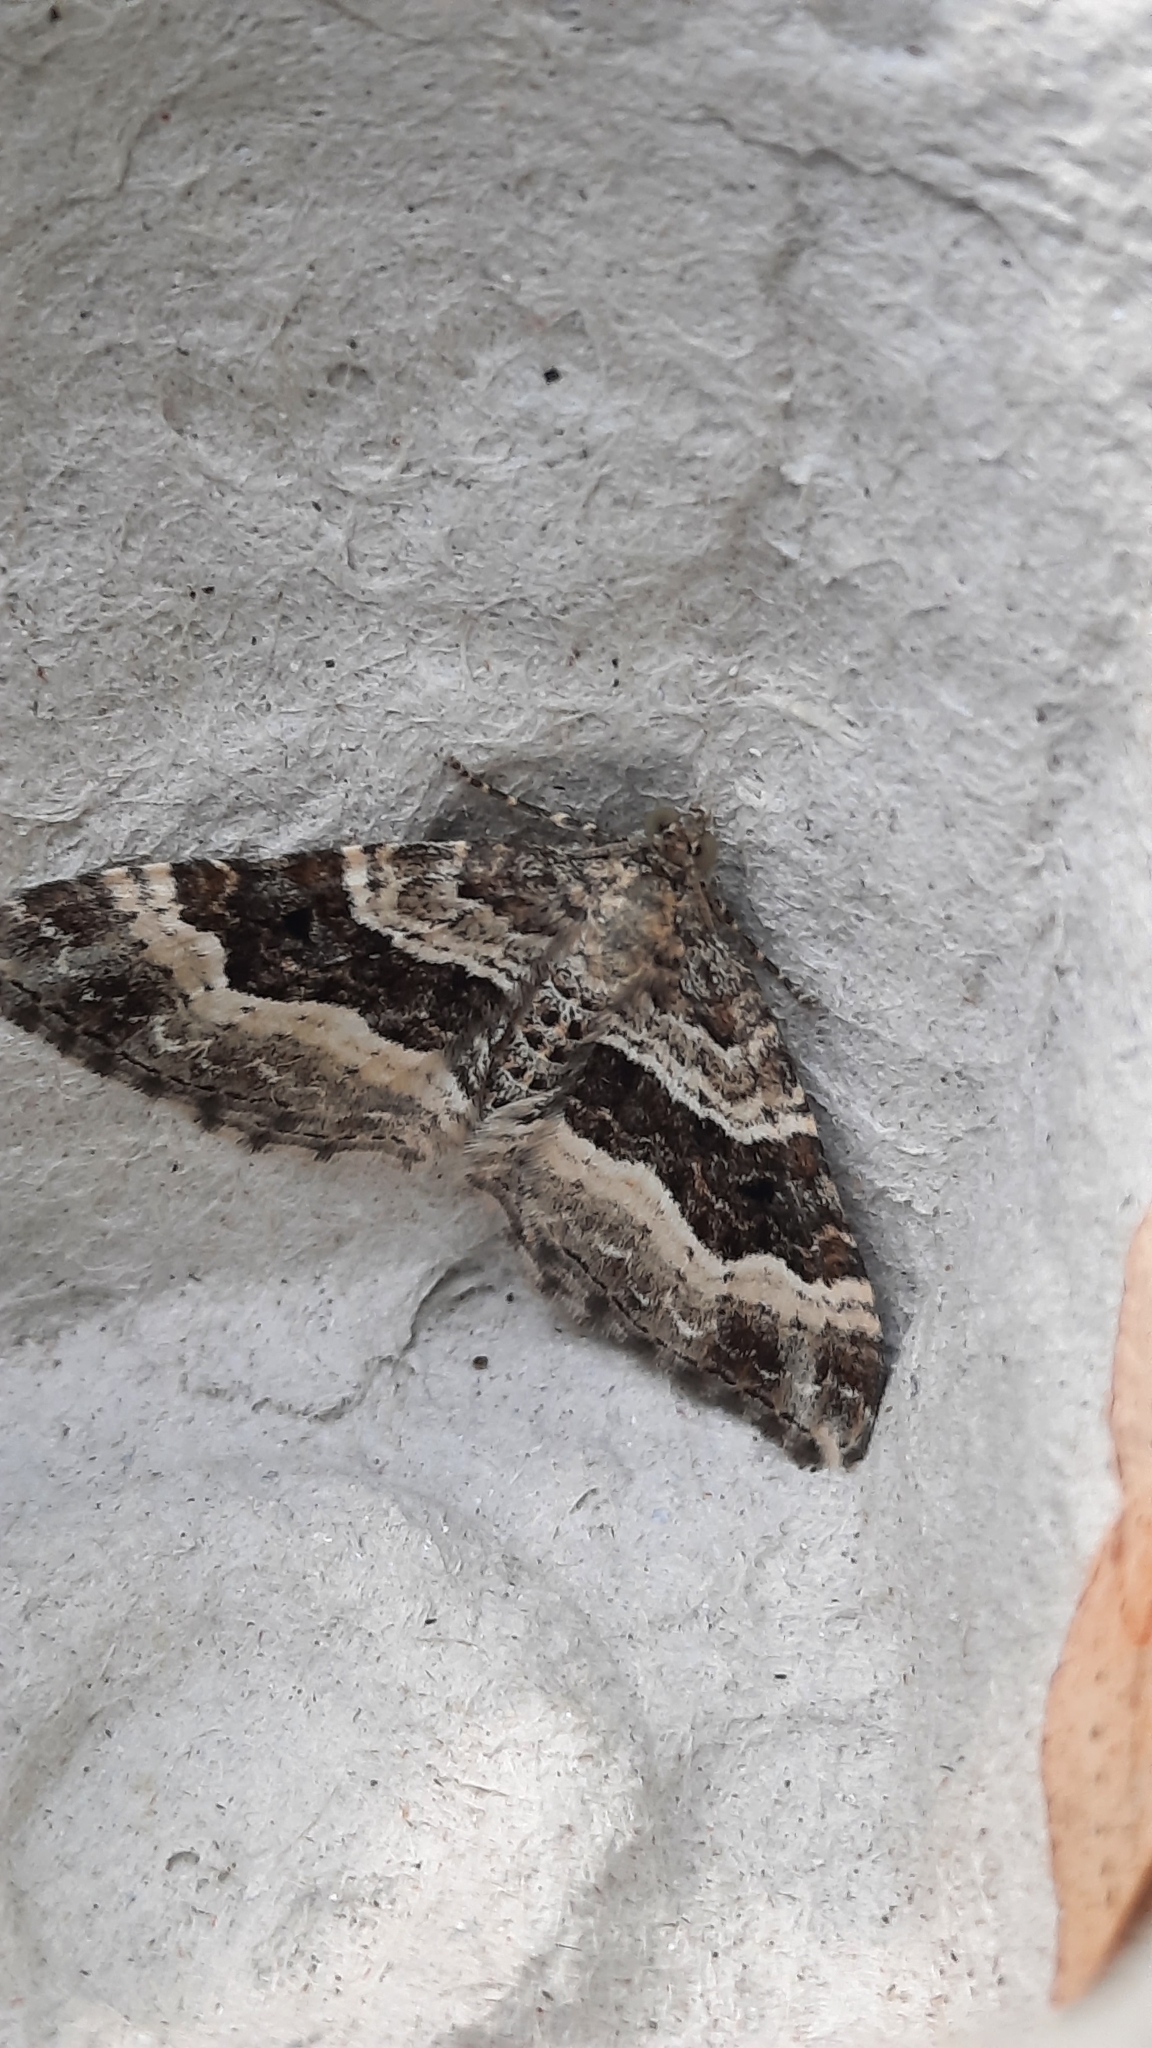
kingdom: Animalia
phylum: Arthropoda
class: Insecta
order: Lepidoptera
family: Geometridae
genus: Epirrhoe
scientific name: Epirrhoe alternata
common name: Common carpet
